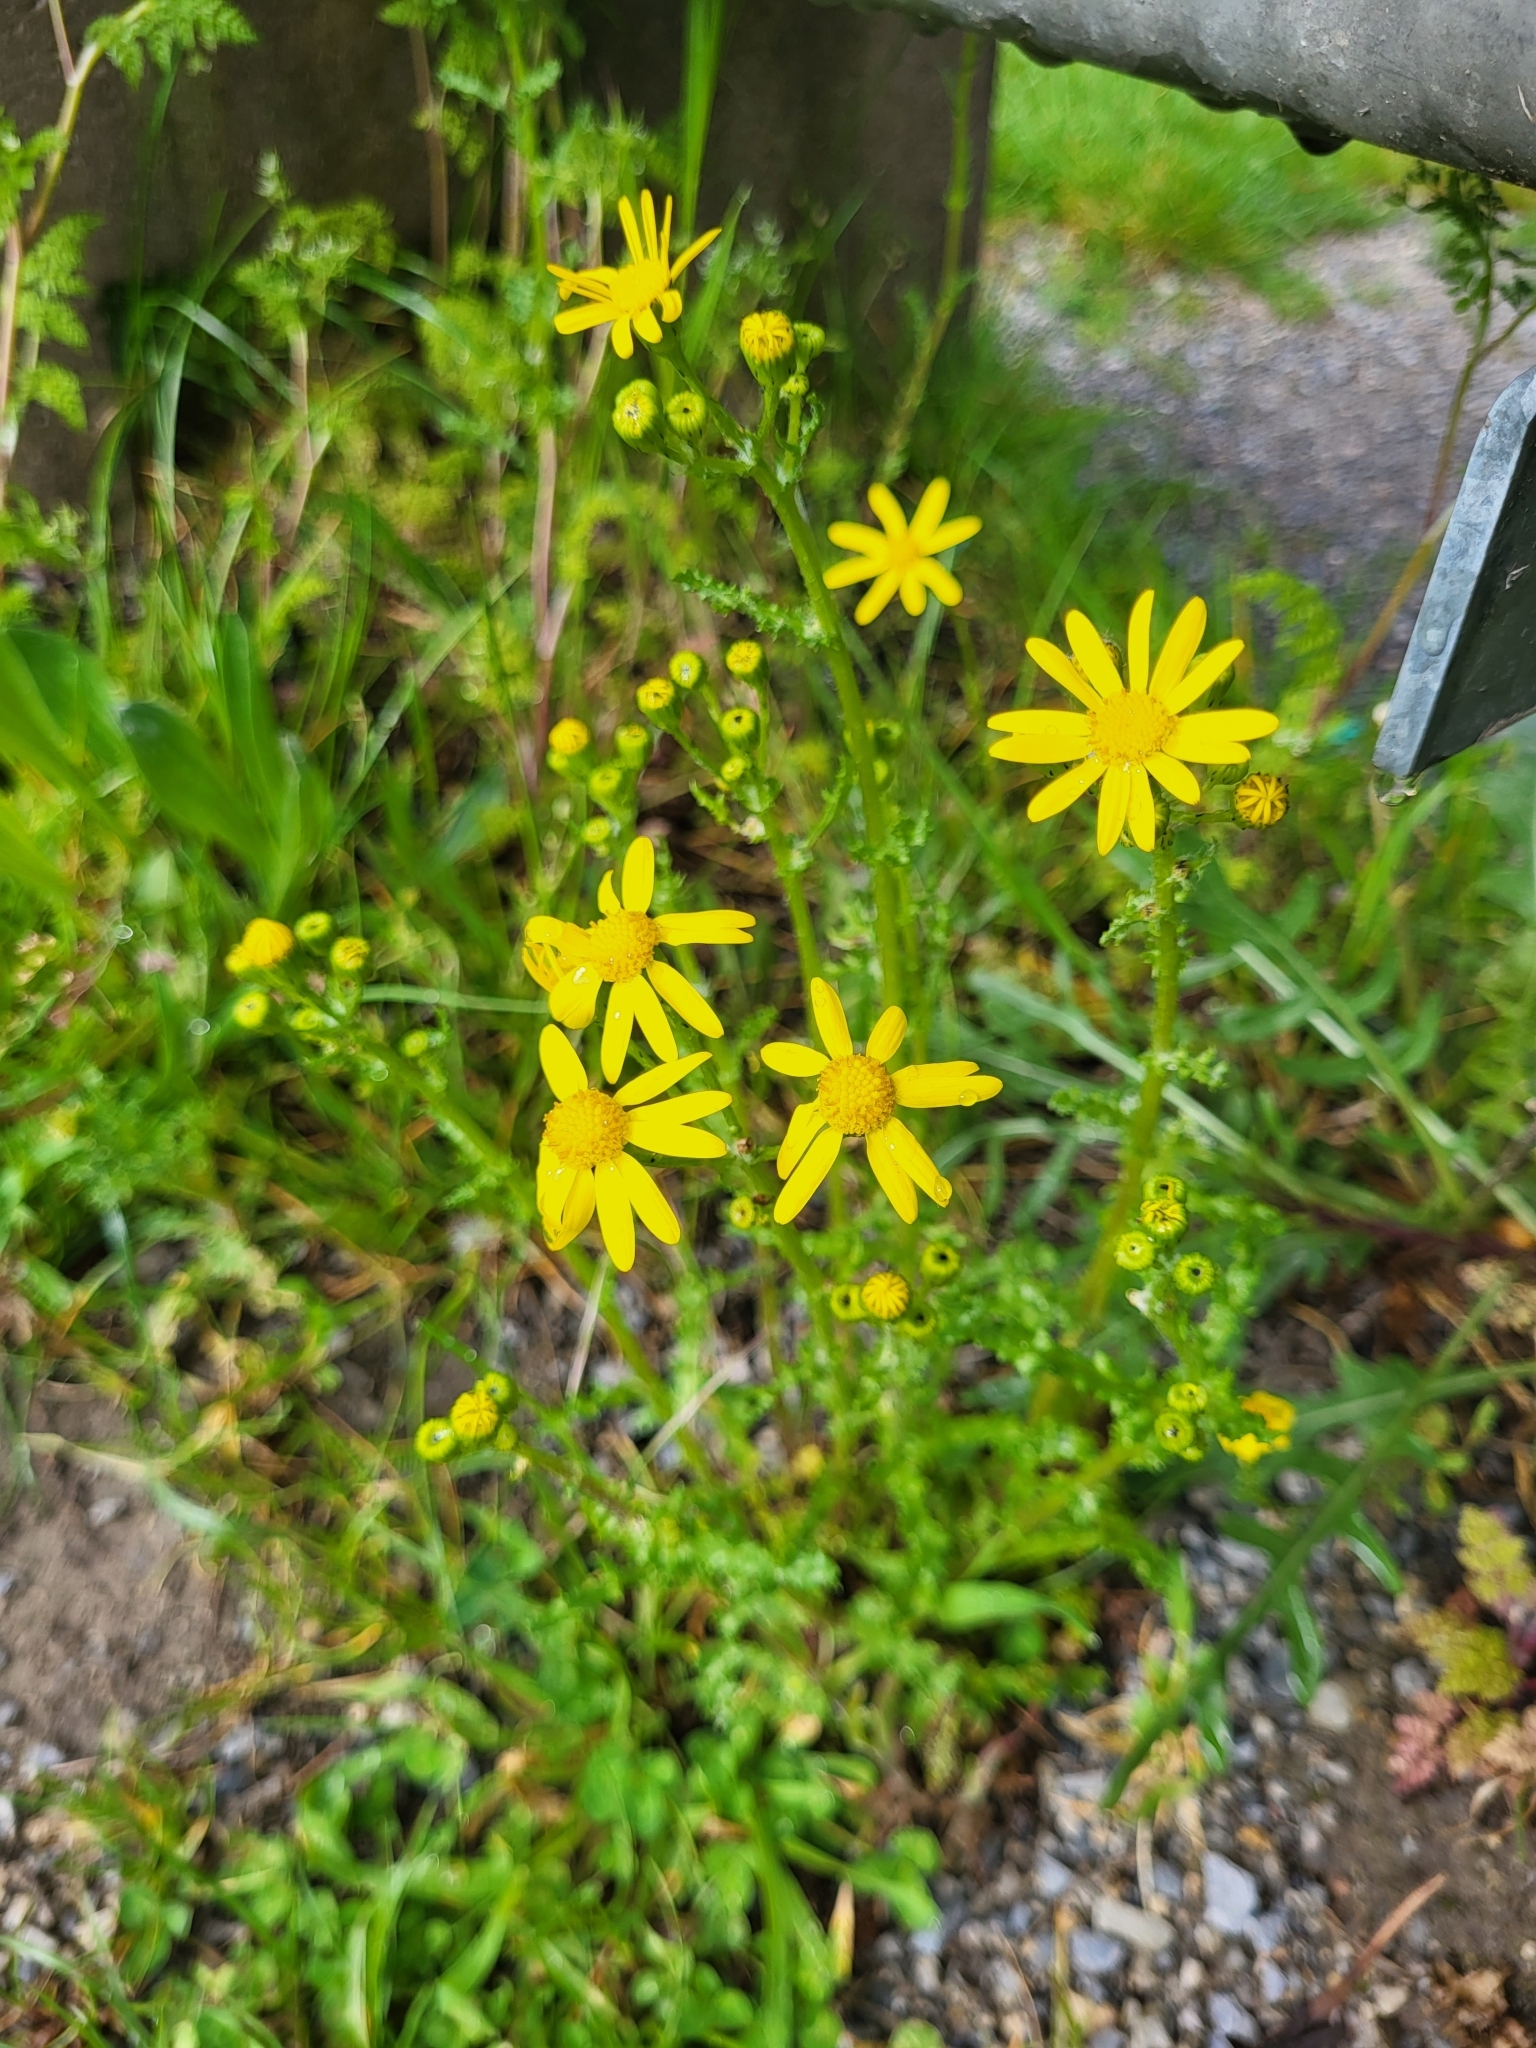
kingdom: Plantae
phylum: Tracheophyta
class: Magnoliopsida
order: Asterales
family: Asteraceae
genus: Senecio
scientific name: Senecio vernalis
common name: Eastern groundsel
